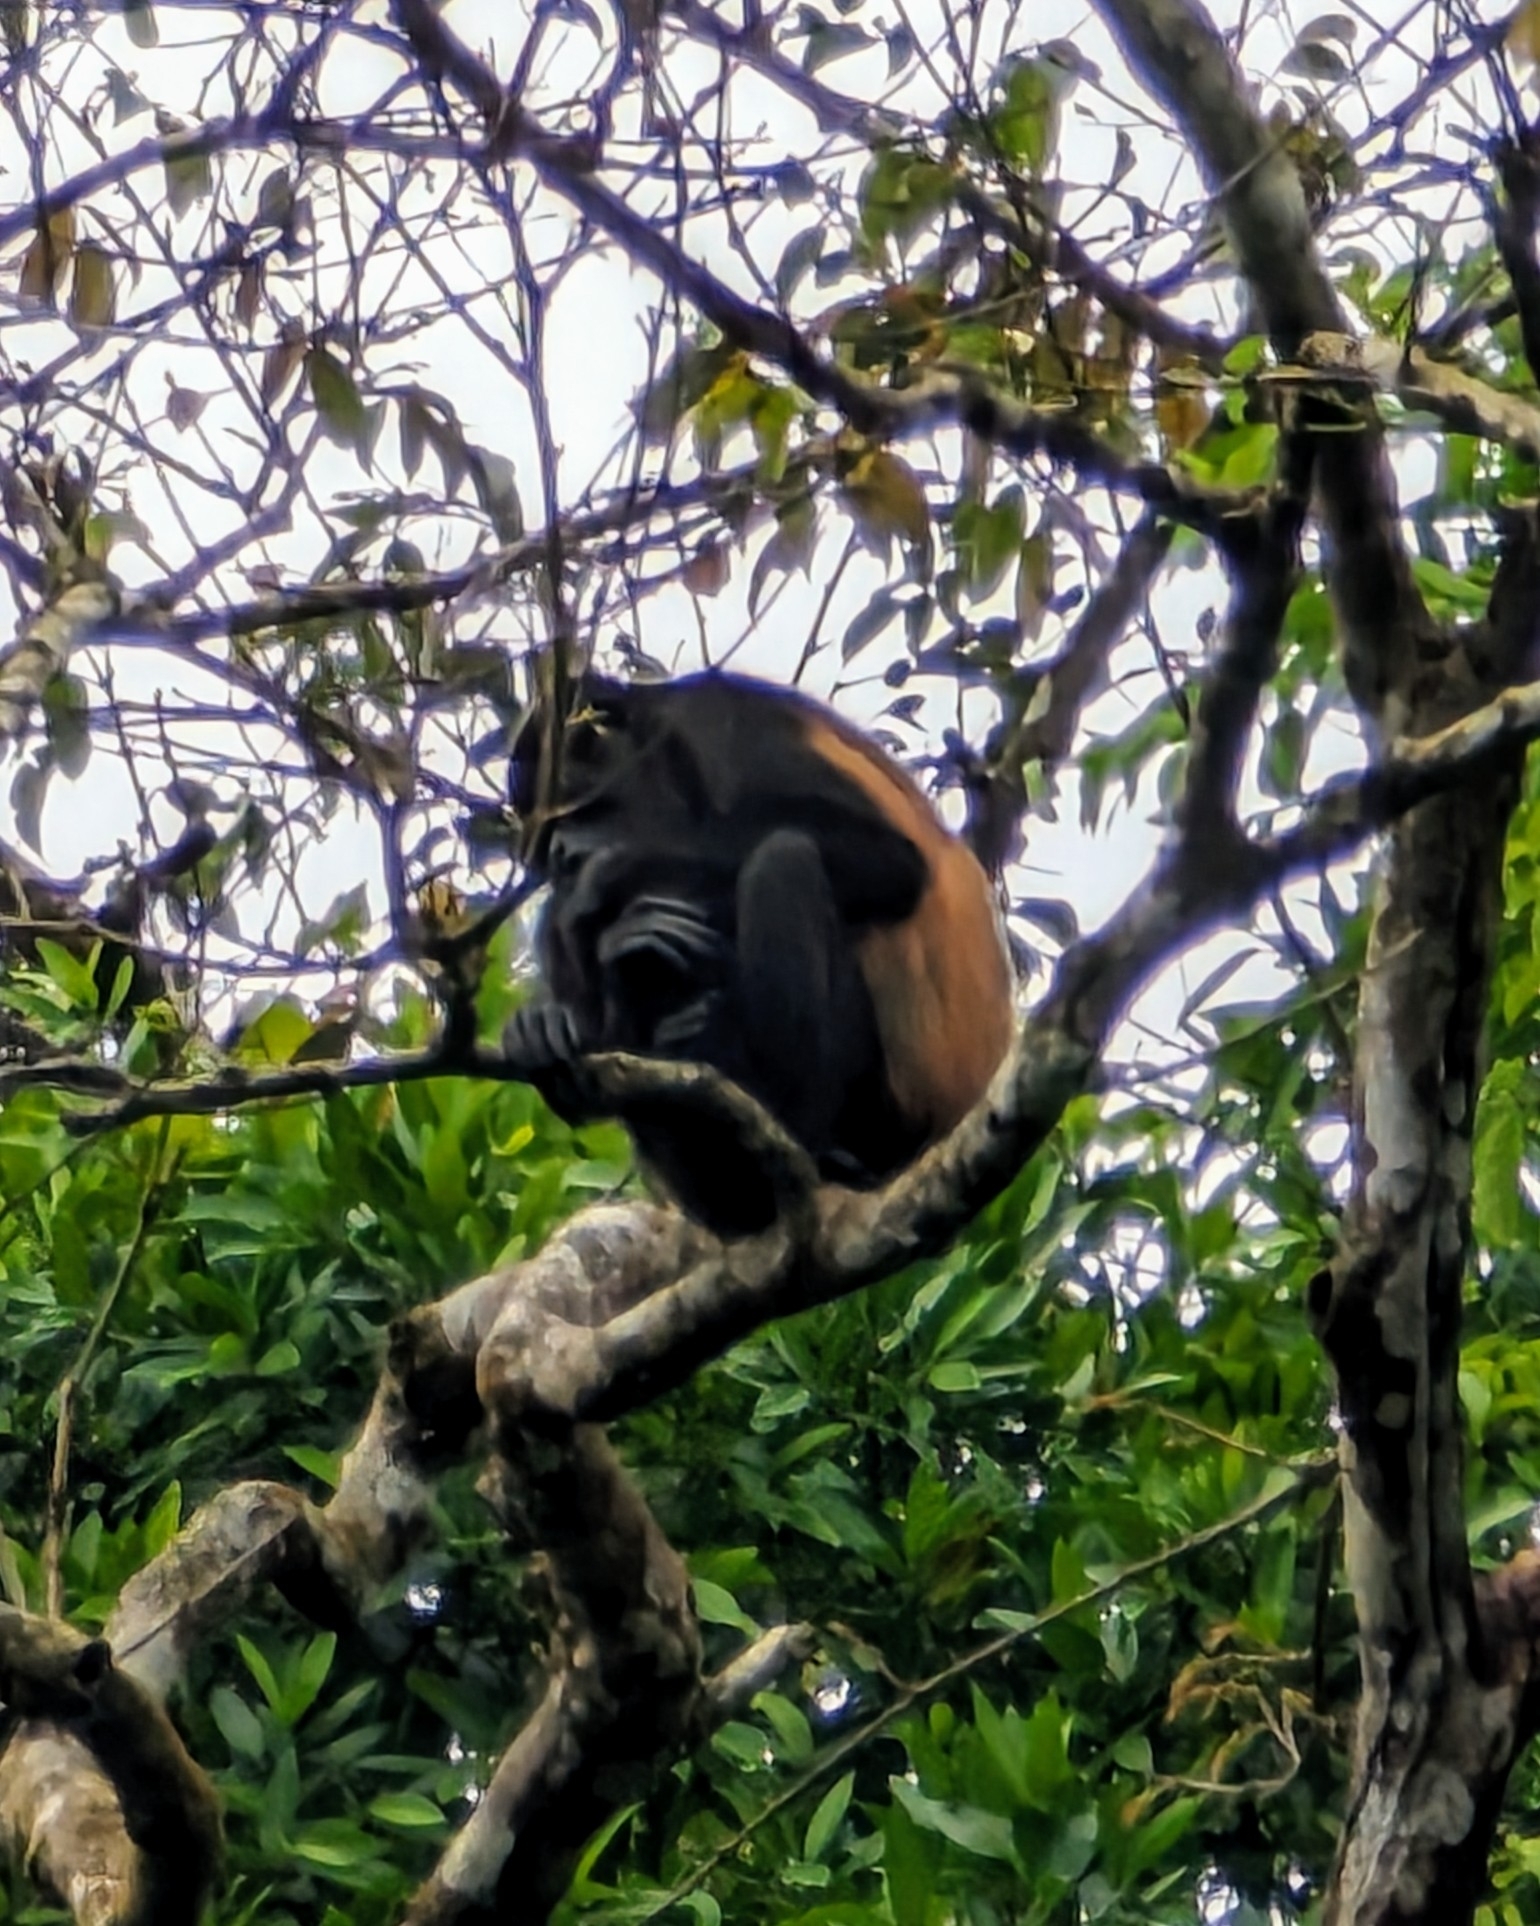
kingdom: Animalia
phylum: Chordata
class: Mammalia
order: Primates
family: Atelidae
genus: Alouatta
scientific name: Alouatta palliata
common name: Mantled howler
